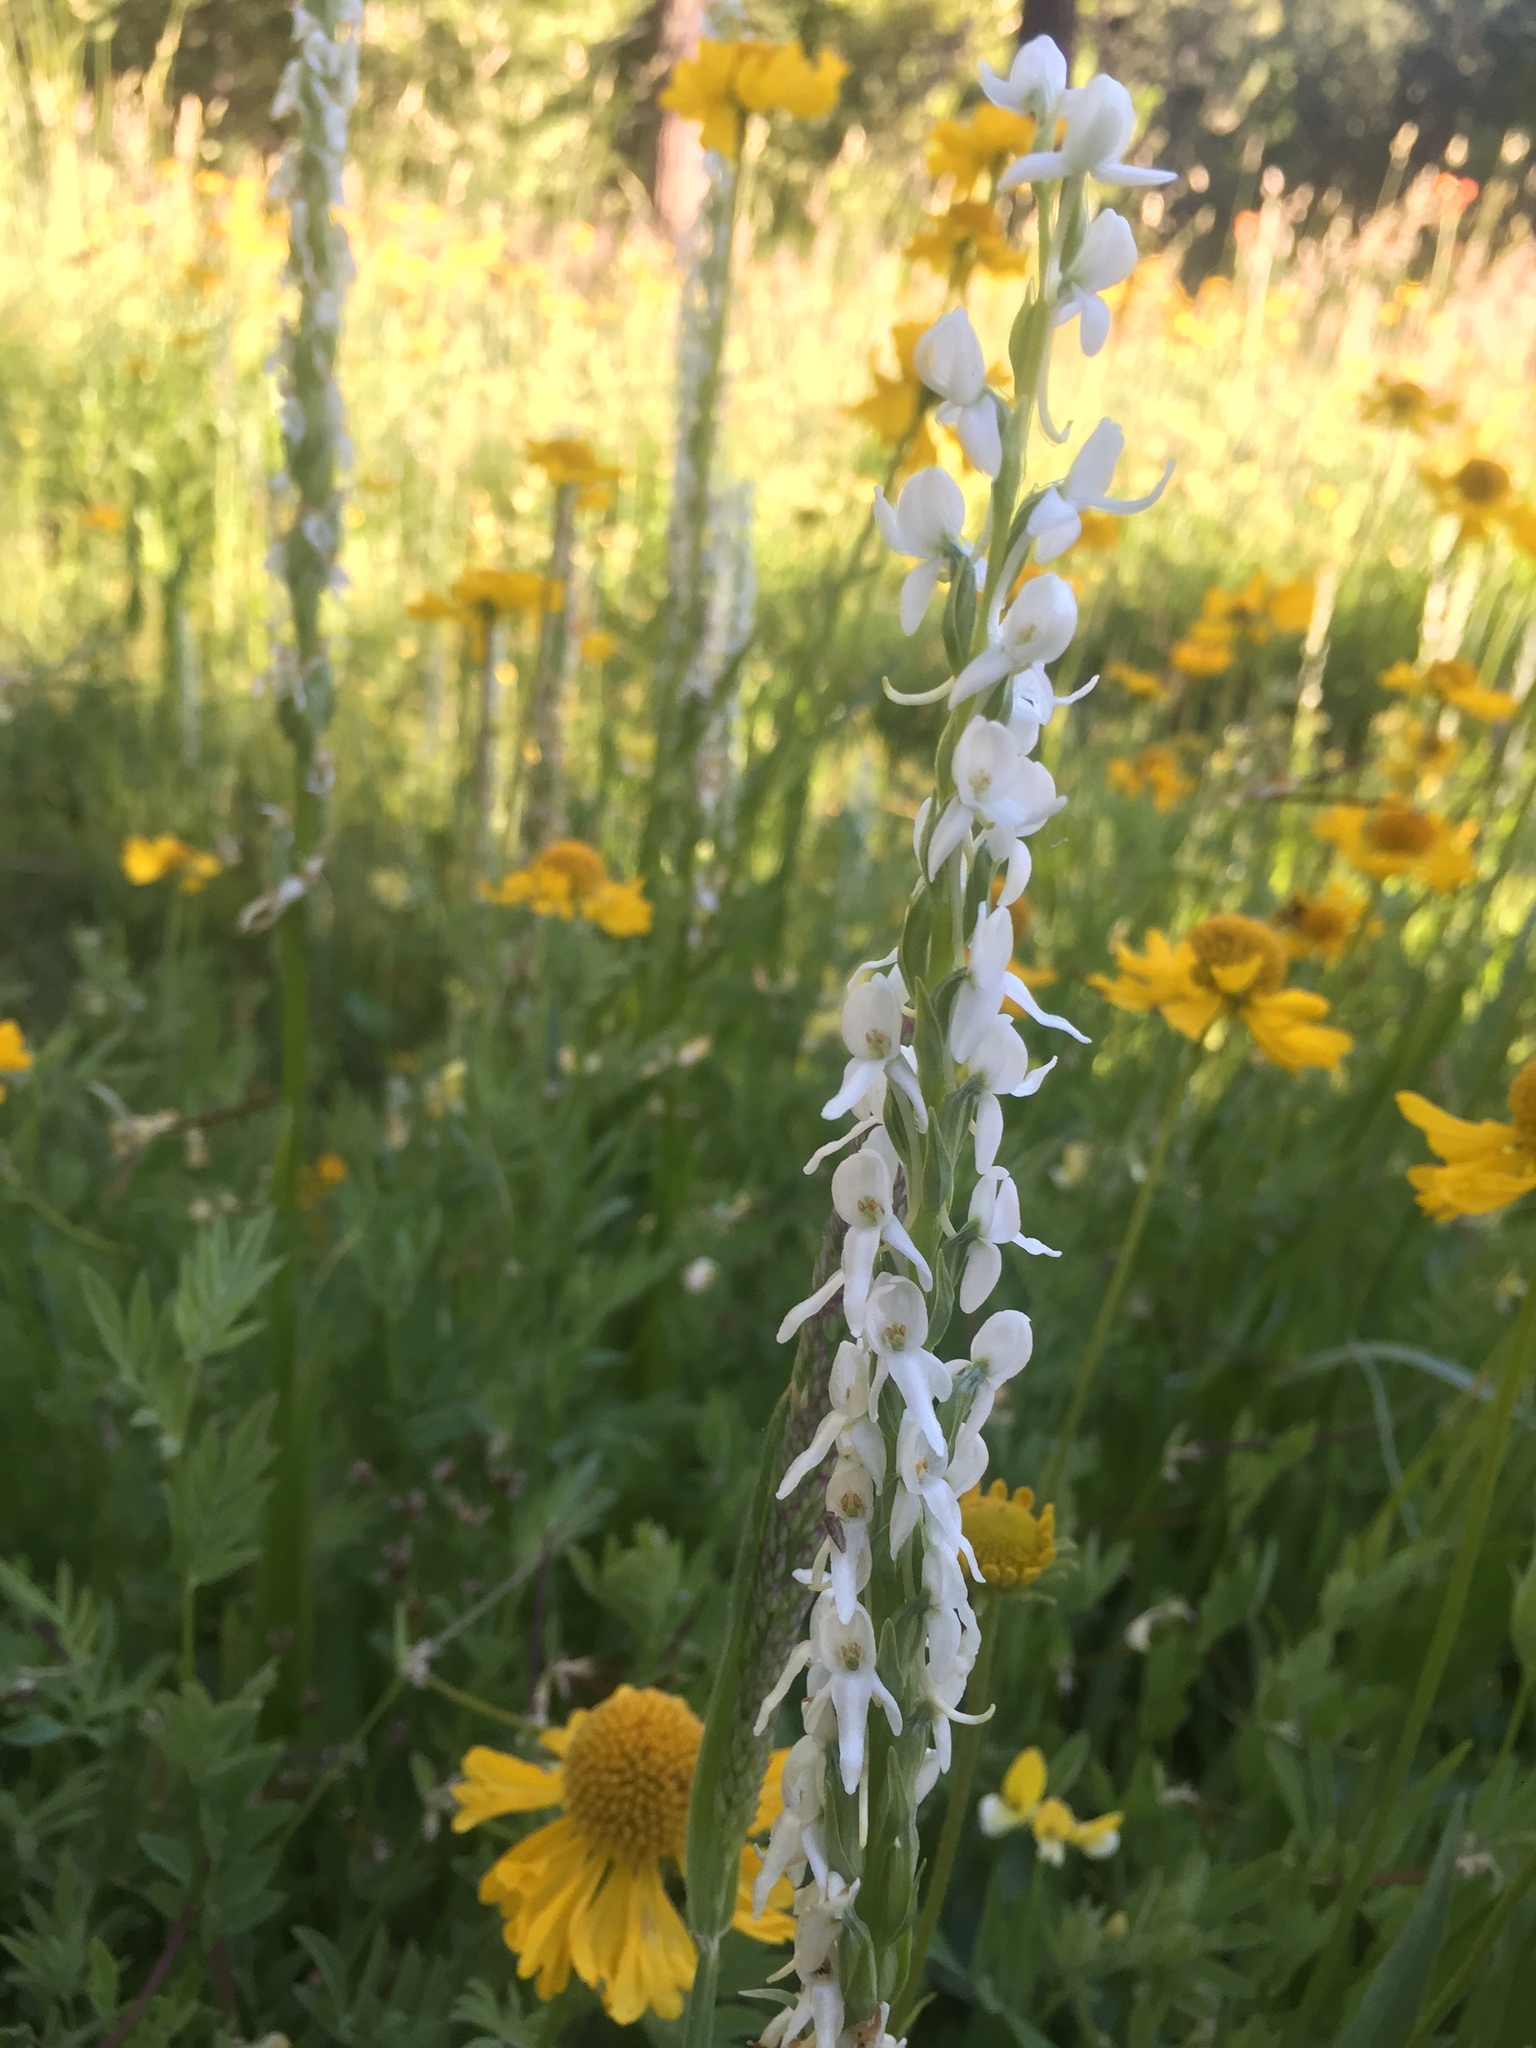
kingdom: Plantae
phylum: Tracheophyta
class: Liliopsida
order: Asparagales
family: Orchidaceae
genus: Platanthera
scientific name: Platanthera dilatata
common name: Bog candles
